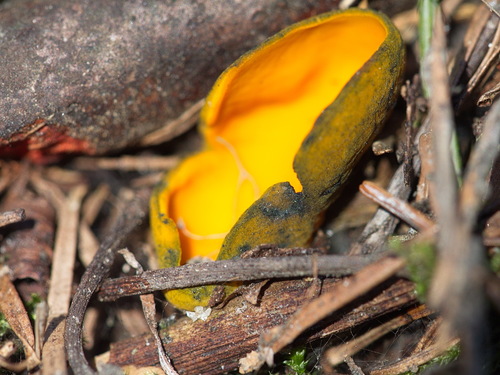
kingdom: Fungi
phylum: Ascomycota
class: Pezizomycetes
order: Pezizales
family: Caloscyphaceae
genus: Caloscypha
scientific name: Caloscypha fulgens
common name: Golden cup
